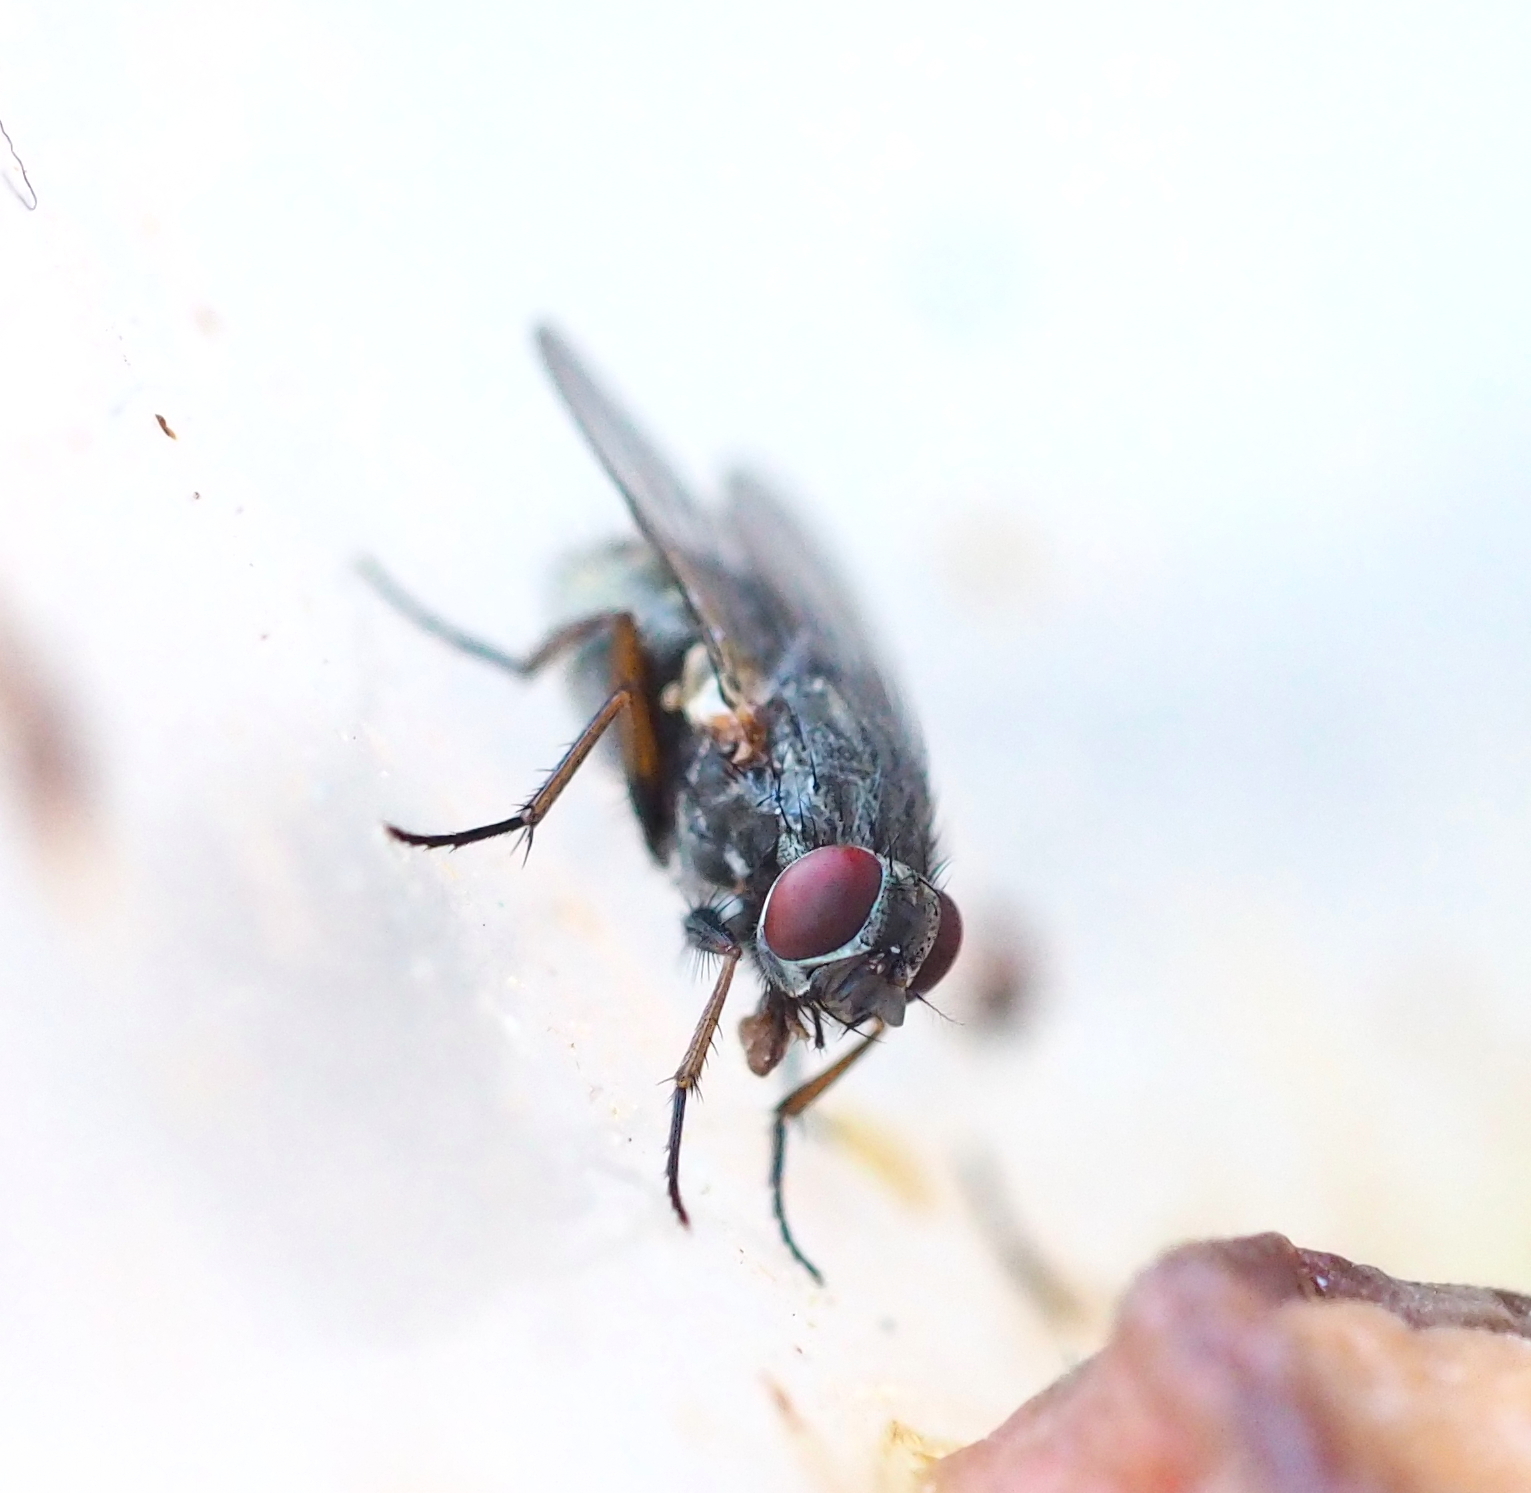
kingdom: Animalia
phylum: Arthropoda
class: Insecta
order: Diptera
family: Muscidae
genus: Muscina
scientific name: Muscina stabulans
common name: False stable fly
